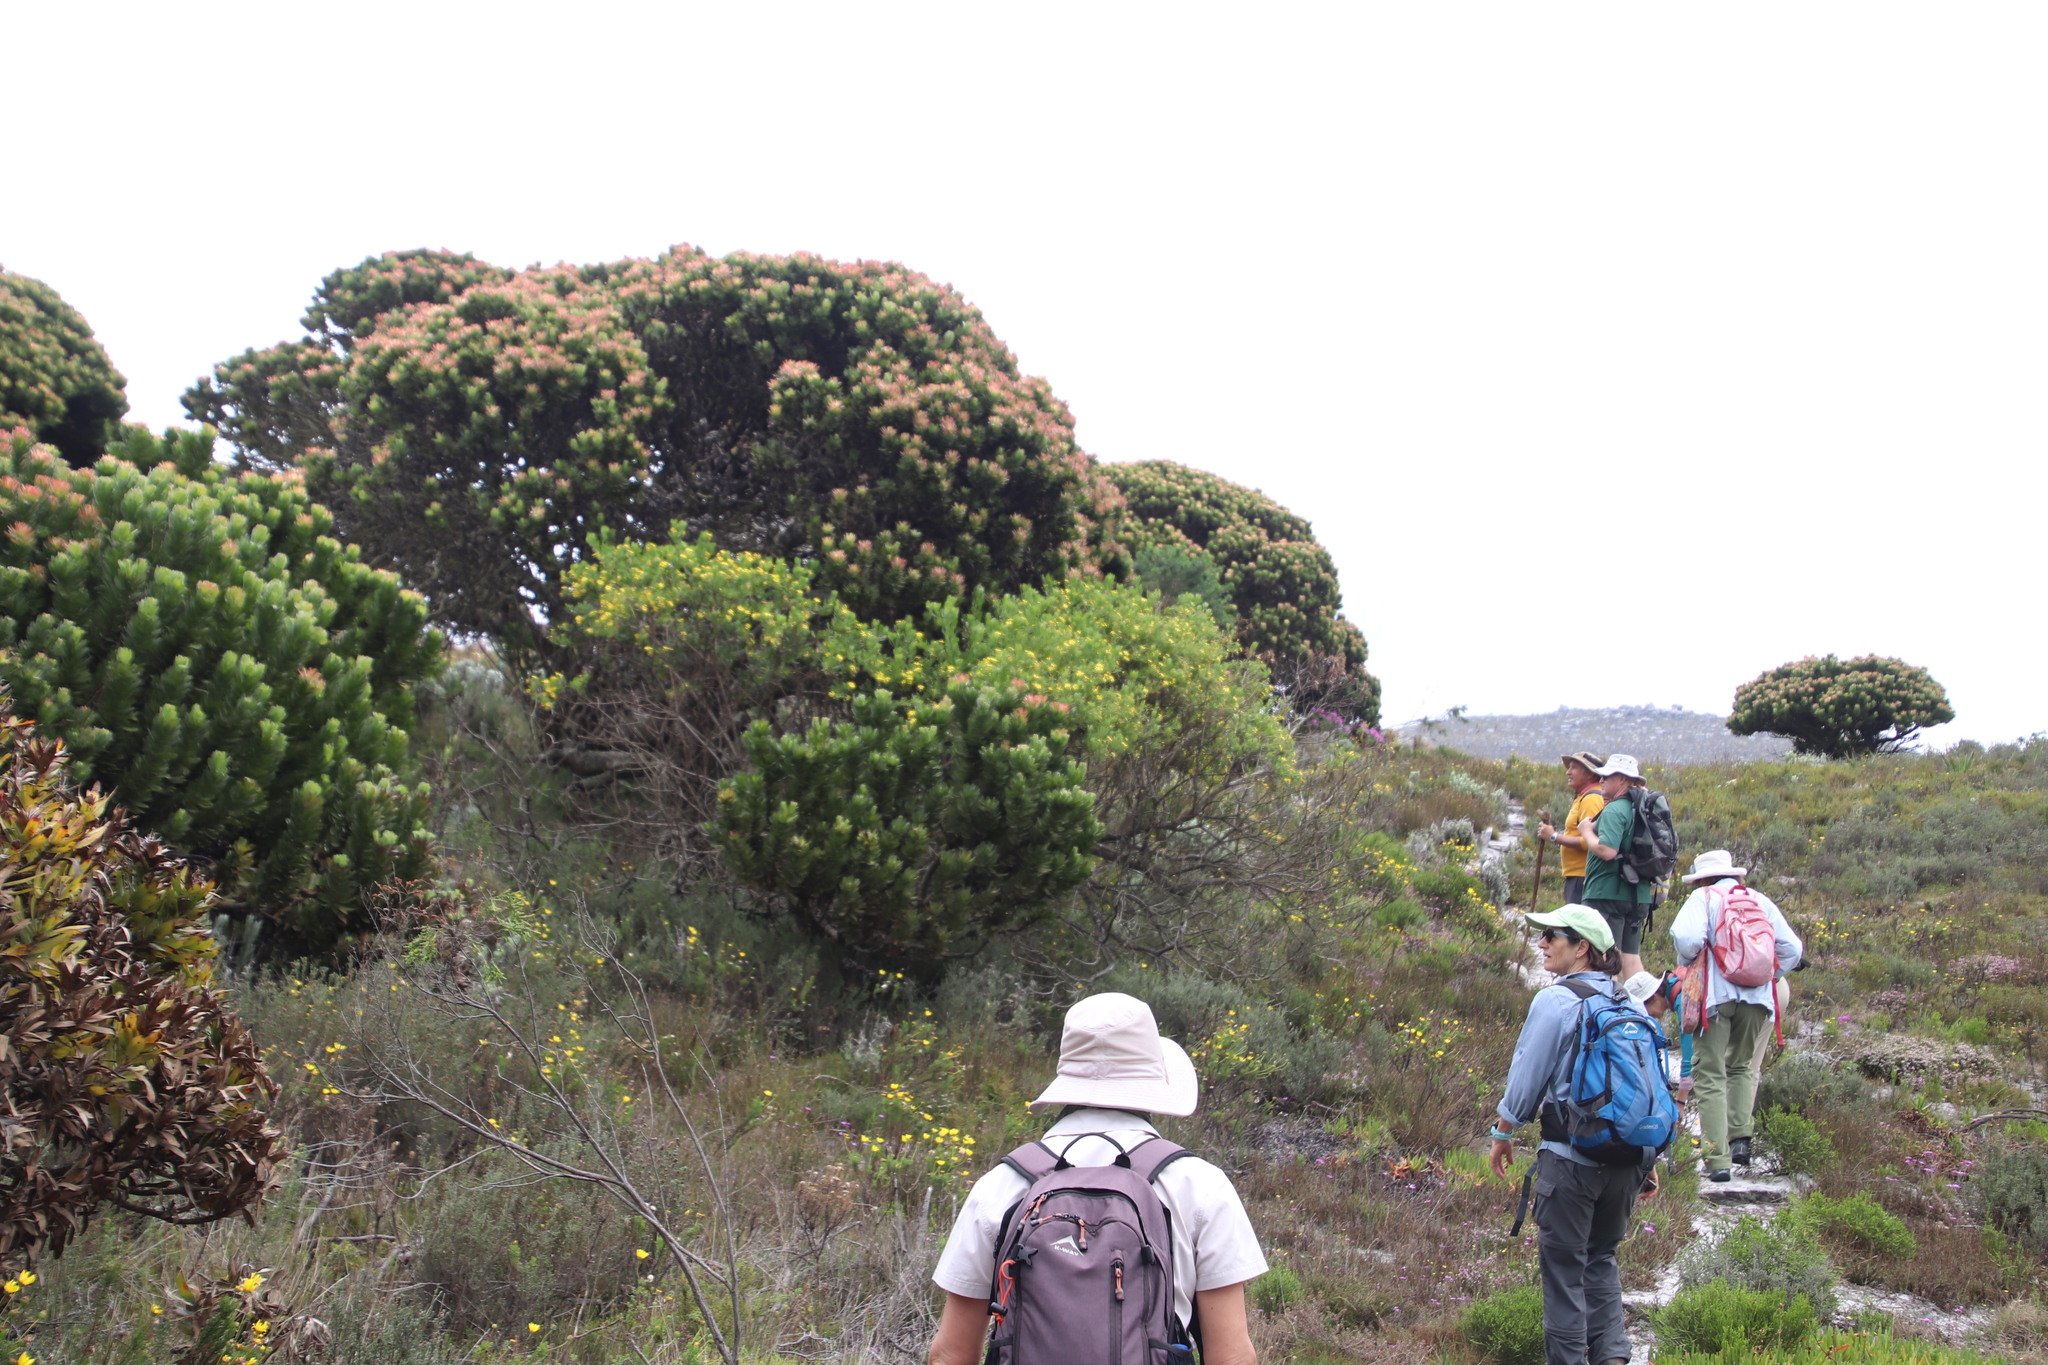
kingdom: Plantae
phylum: Tracheophyta
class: Magnoliopsida
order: Proteales
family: Proteaceae
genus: Mimetes
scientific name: Mimetes fimbriifolius
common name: Fringed bottlebrush
